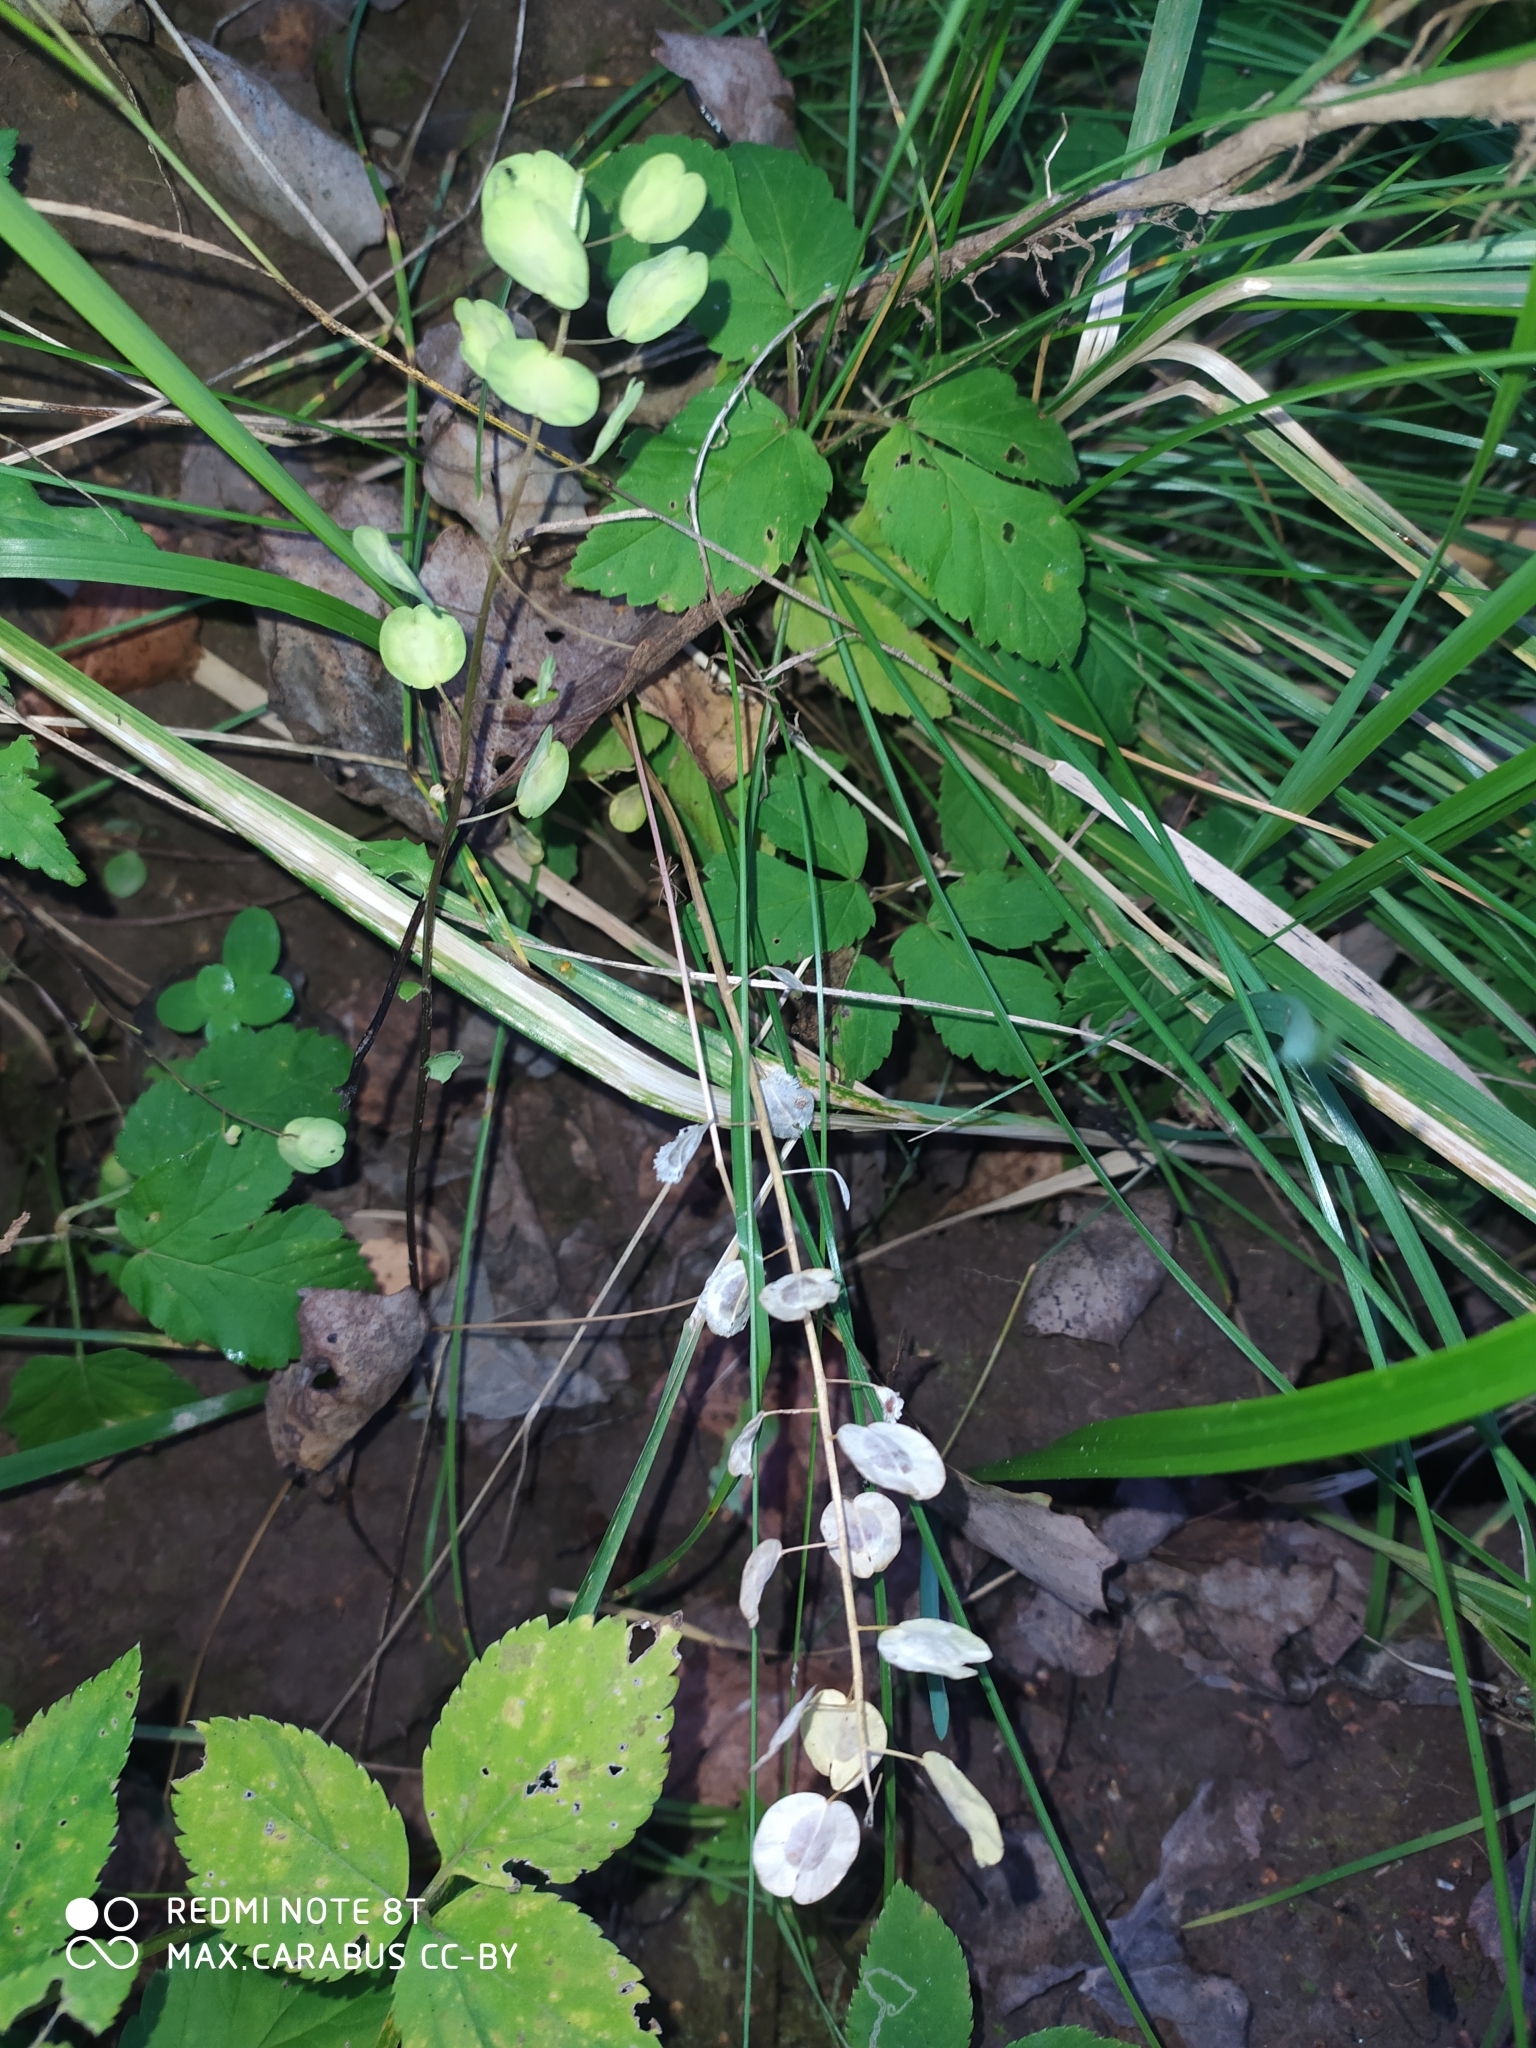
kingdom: Plantae
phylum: Tracheophyta
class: Magnoliopsida
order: Brassicales
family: Brassicaceae
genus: Thlaspi
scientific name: Thlaspi arvense
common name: Field pennycress
